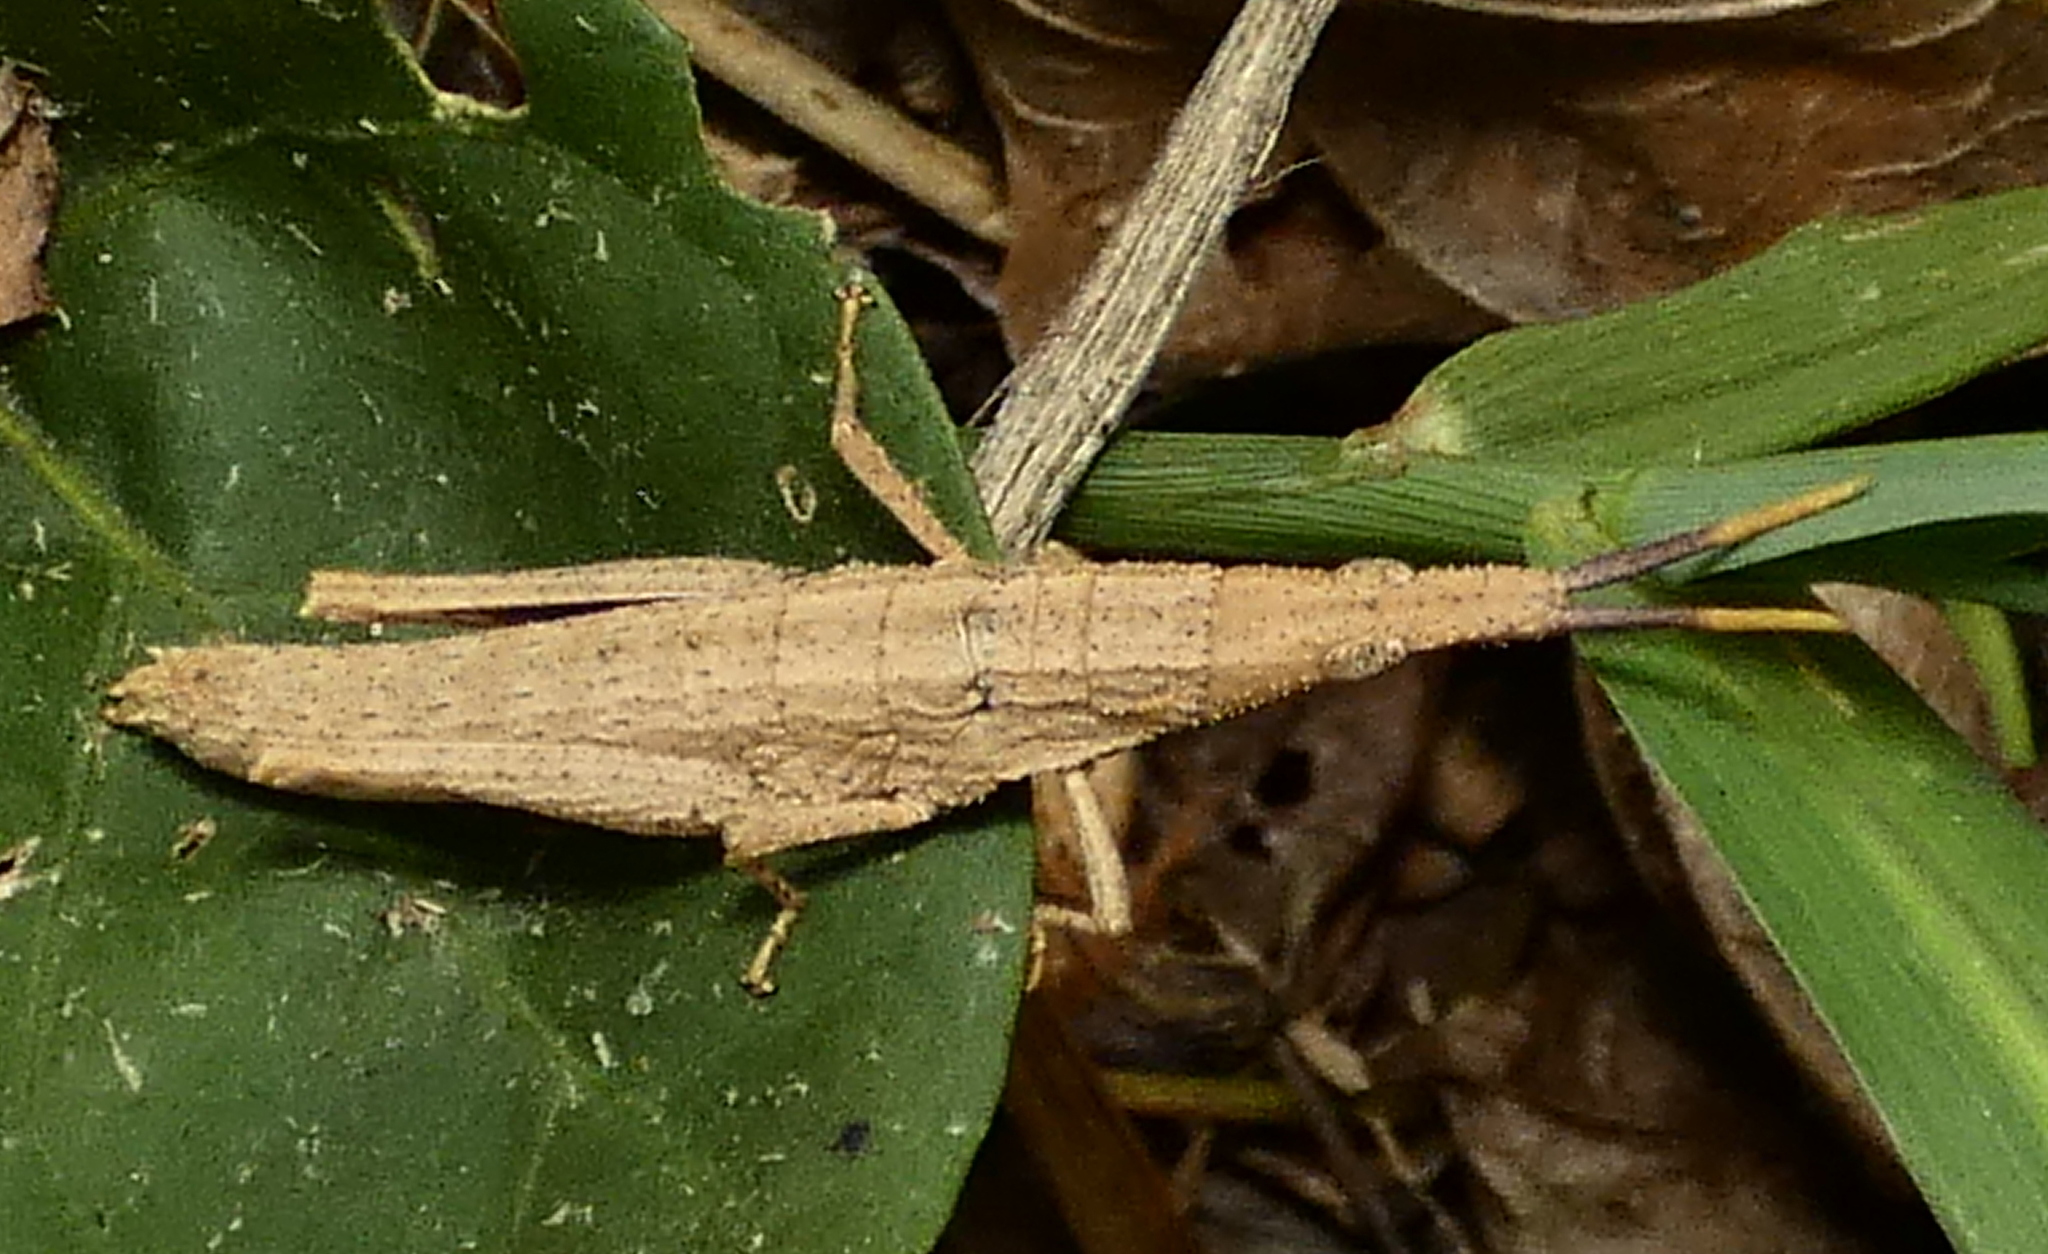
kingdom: Animalia
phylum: Arthropoda
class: Insecta
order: Orthoptera
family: Pyrgomorphidae
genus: Algete
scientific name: Algete brunneri
